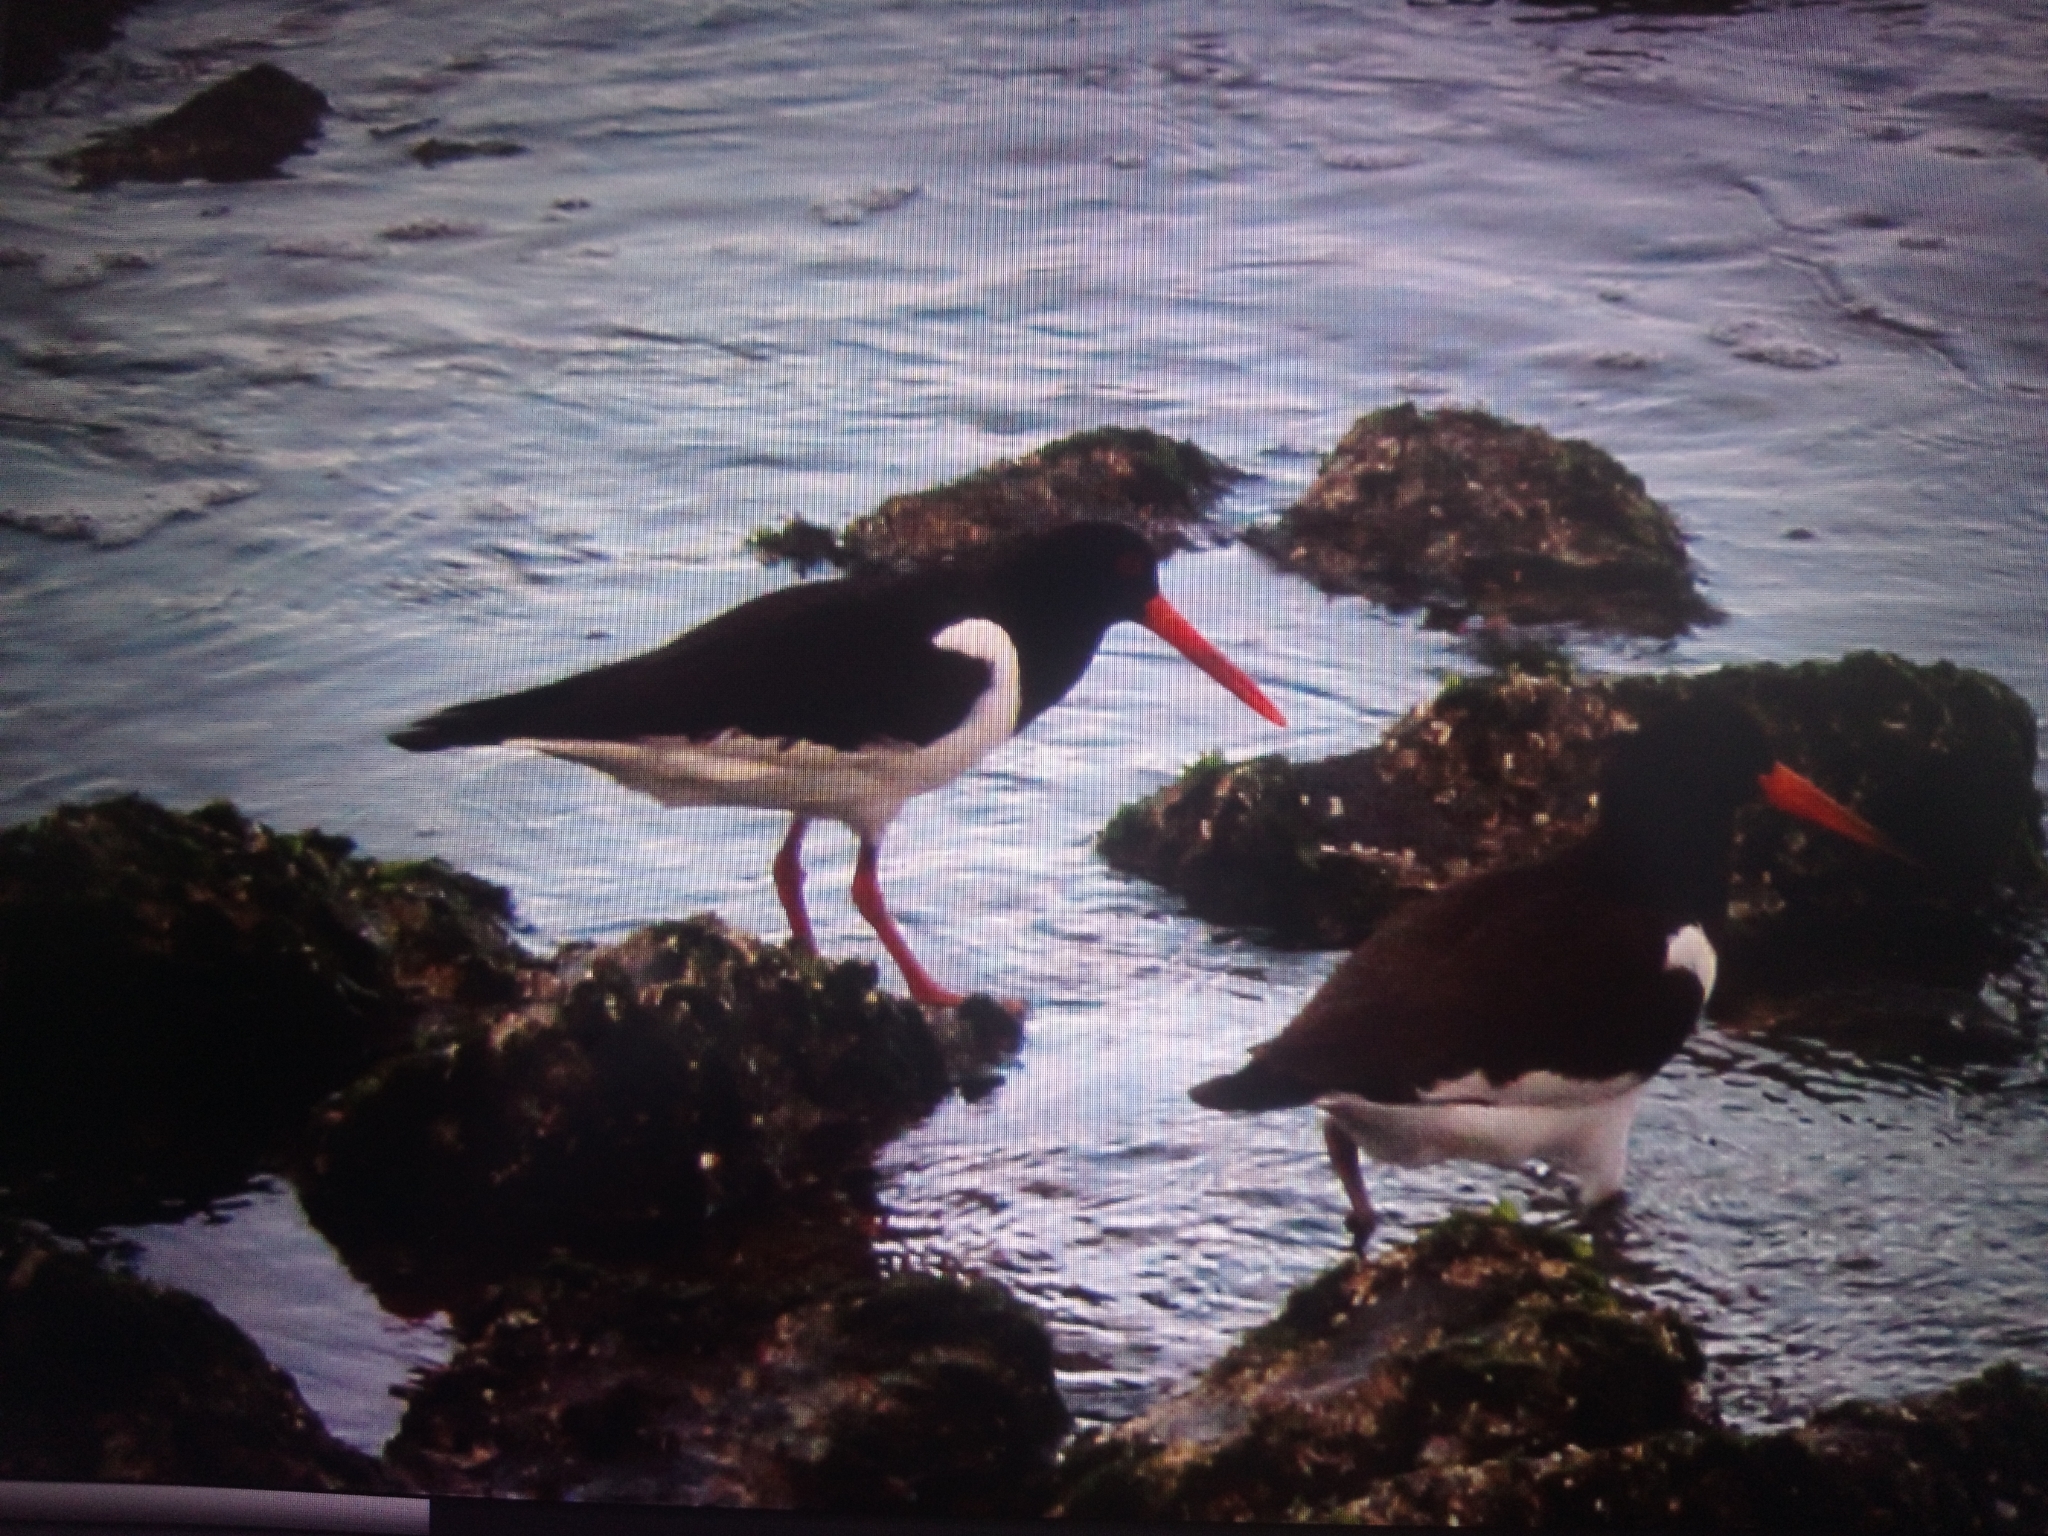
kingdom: Animalia
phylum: Chordata
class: Aves
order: Charadriiformes
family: Haematopodidae
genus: Haematopus
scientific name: Haematopus ostralegus
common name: Eurasian oystercatcher
